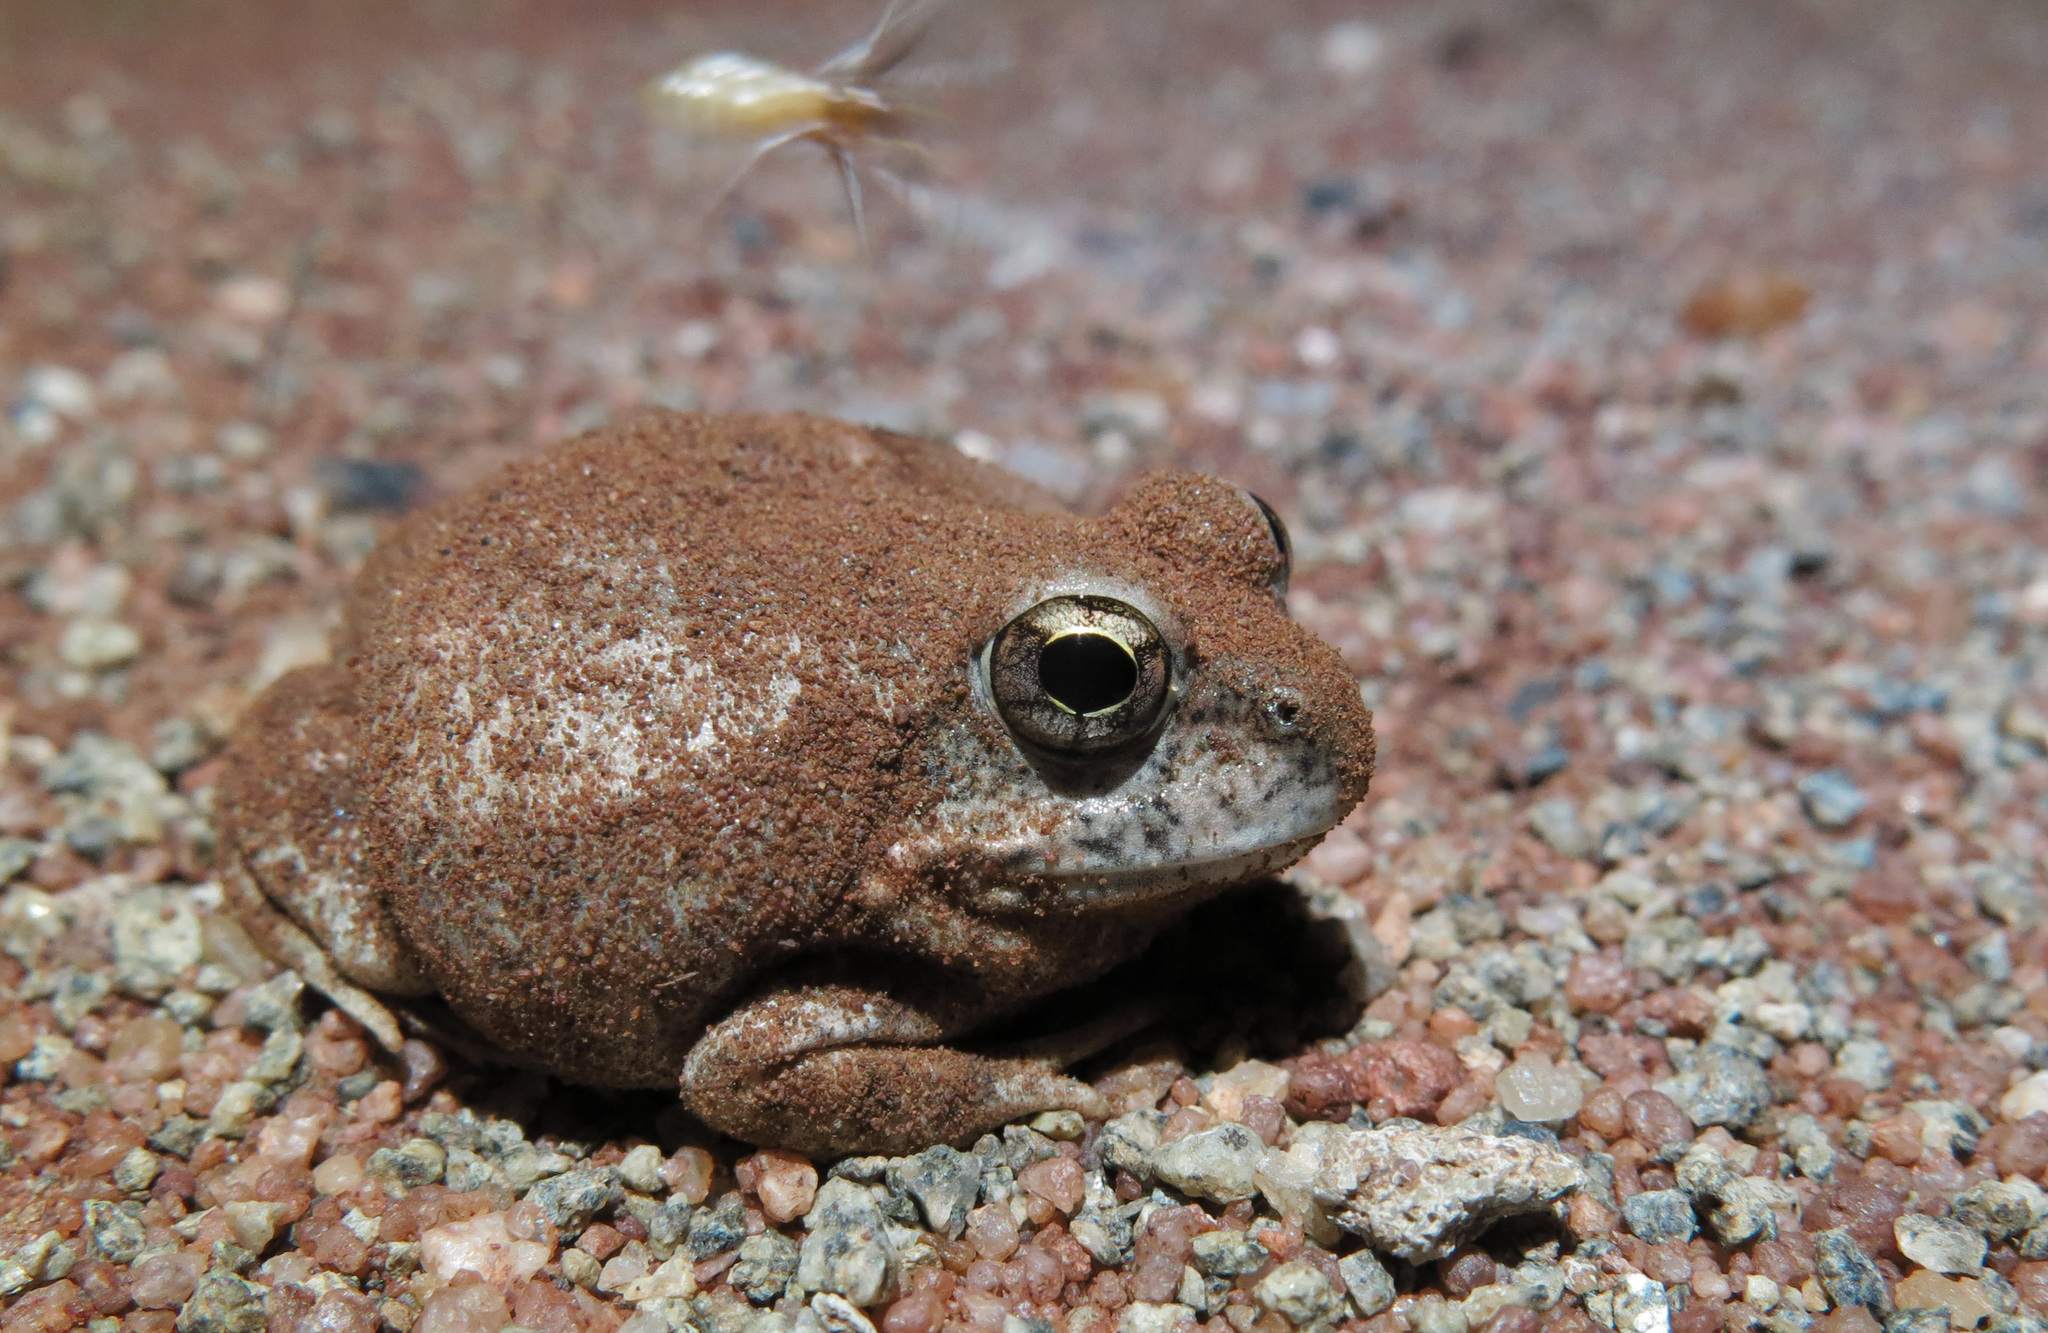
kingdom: Animalia
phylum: Chordata
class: Amphibia
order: Anura
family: Pyxicephalidae
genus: Tomopterna
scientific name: Tomopterna marmorata
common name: Russet-backed sand frog
